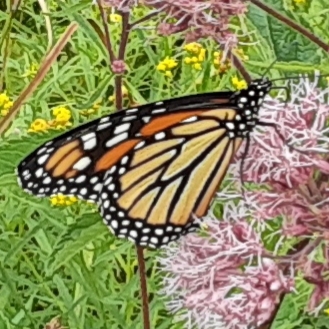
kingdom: Animalia
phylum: Arthropoda
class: Insecta
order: Lepidoptera
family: Nymphalidae
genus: Danaus
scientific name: Danaus plexippus
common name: Monarch
